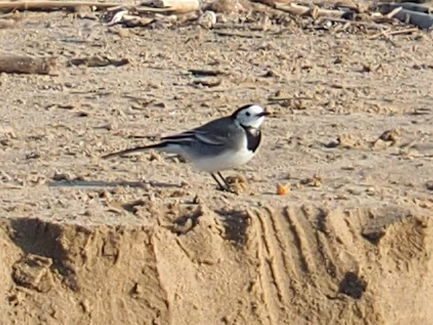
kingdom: Animalia
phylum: Chordata
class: Aves
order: Passeriformes
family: Motacillidae
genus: Motacilla
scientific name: Motacilla alba
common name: White wagtail
